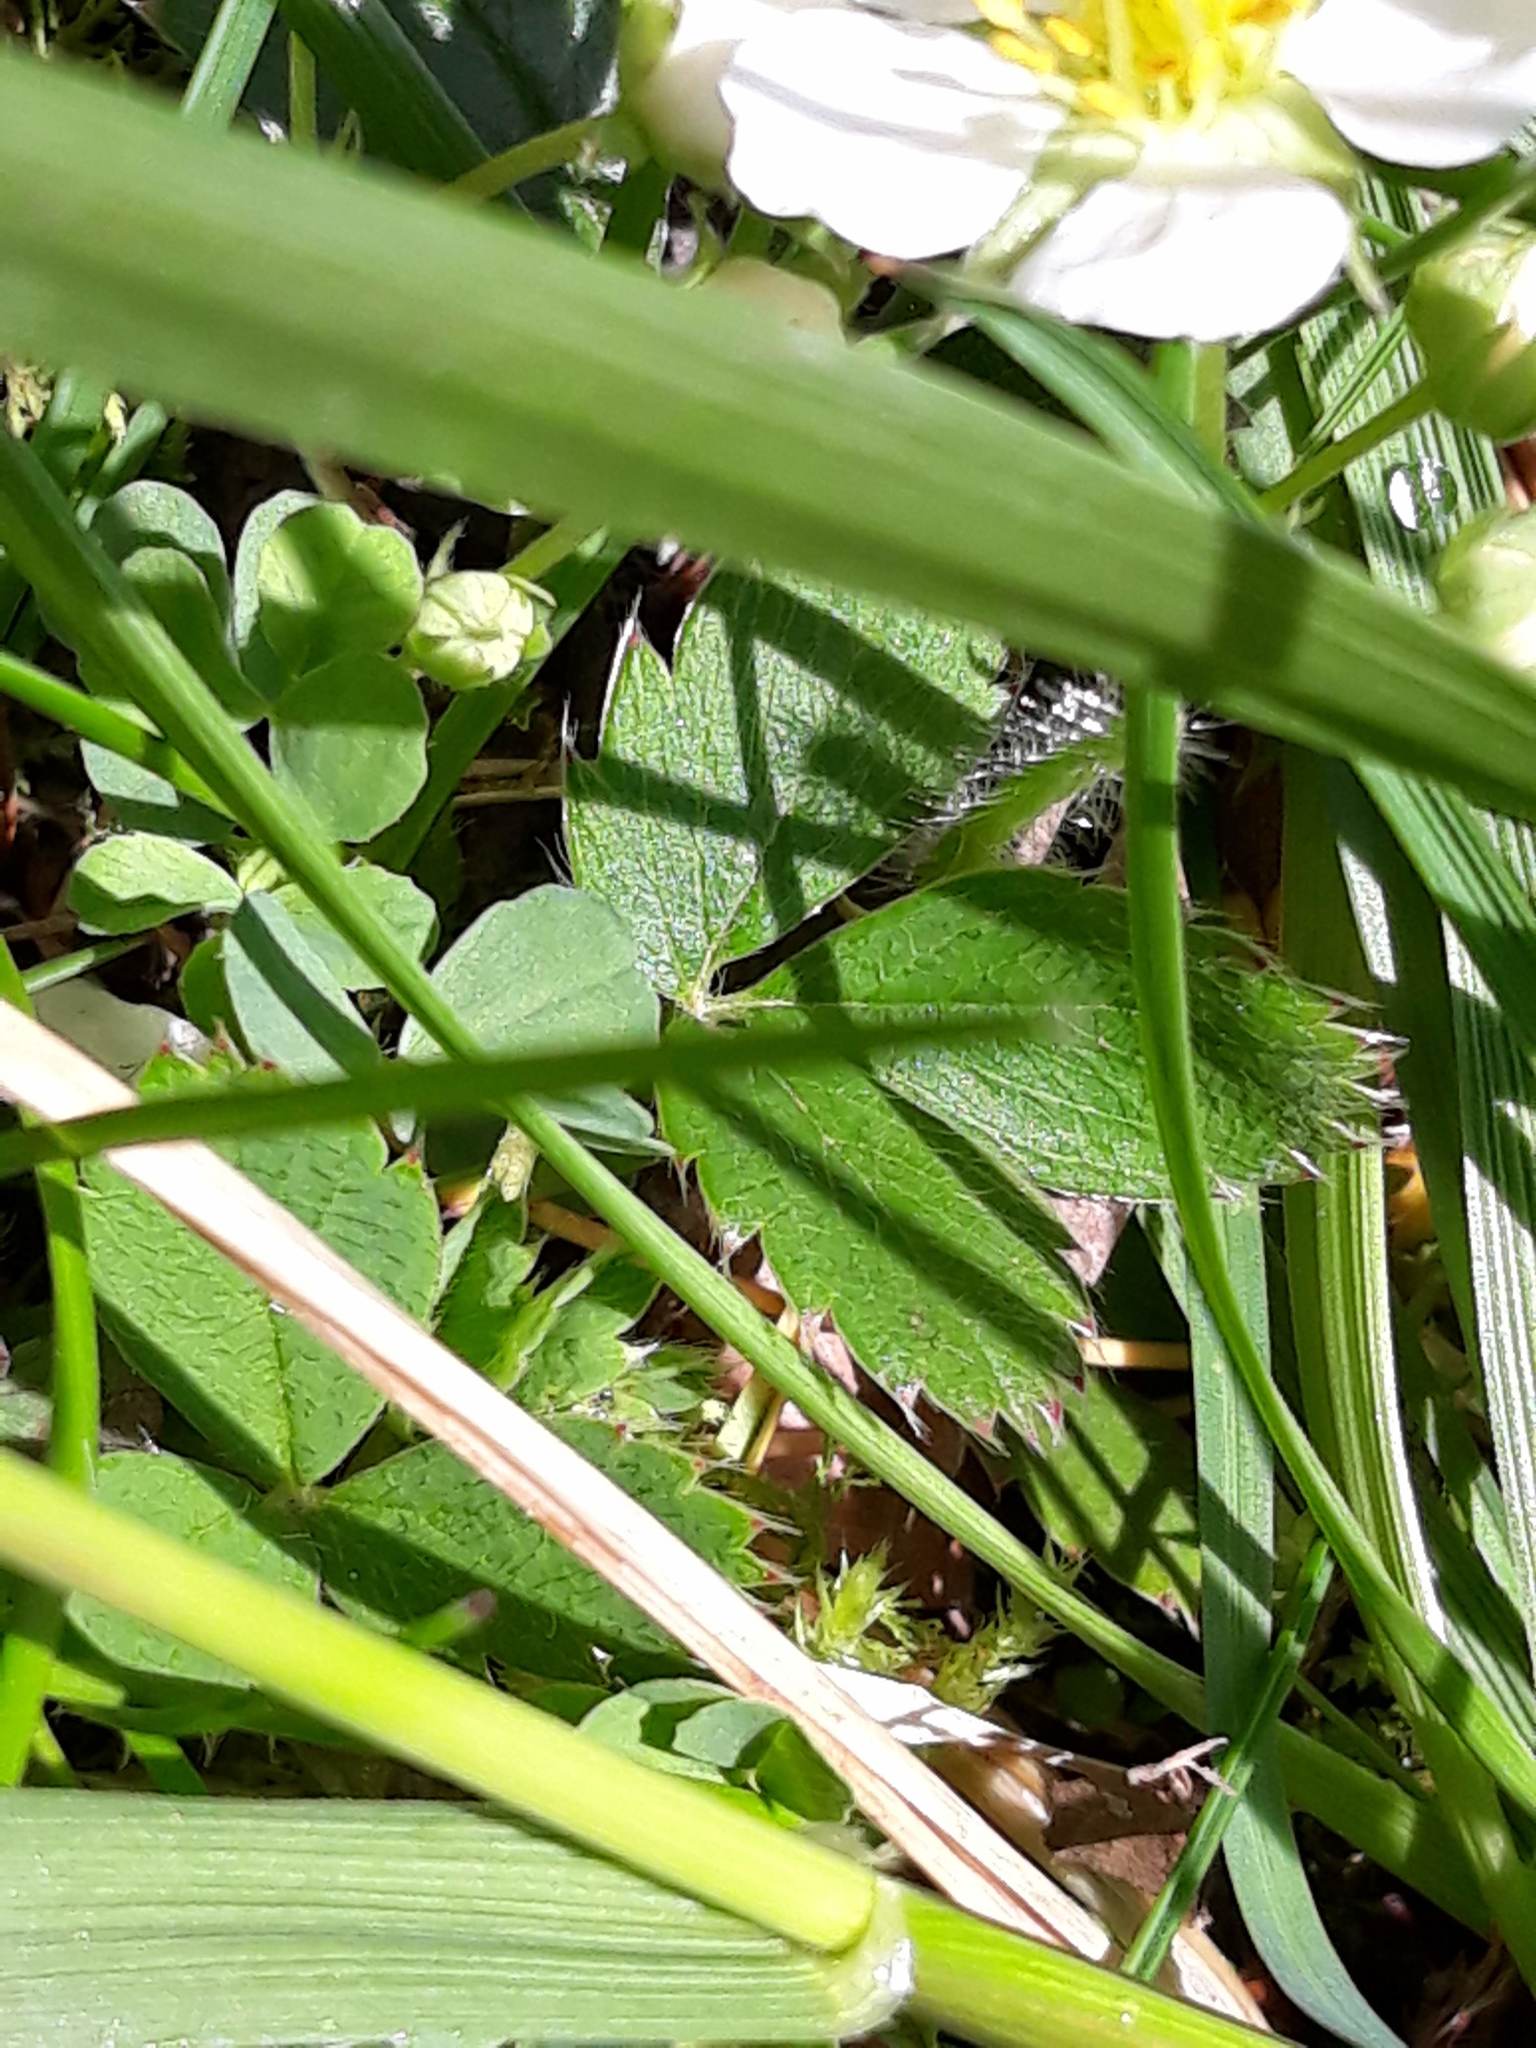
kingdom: Plantae
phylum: Tracheophyta
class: Magnoliopsida
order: Rosales
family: Rosaceae
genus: Fragaria
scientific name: Fragaria virginiana
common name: Thickleaved wild strawberry
